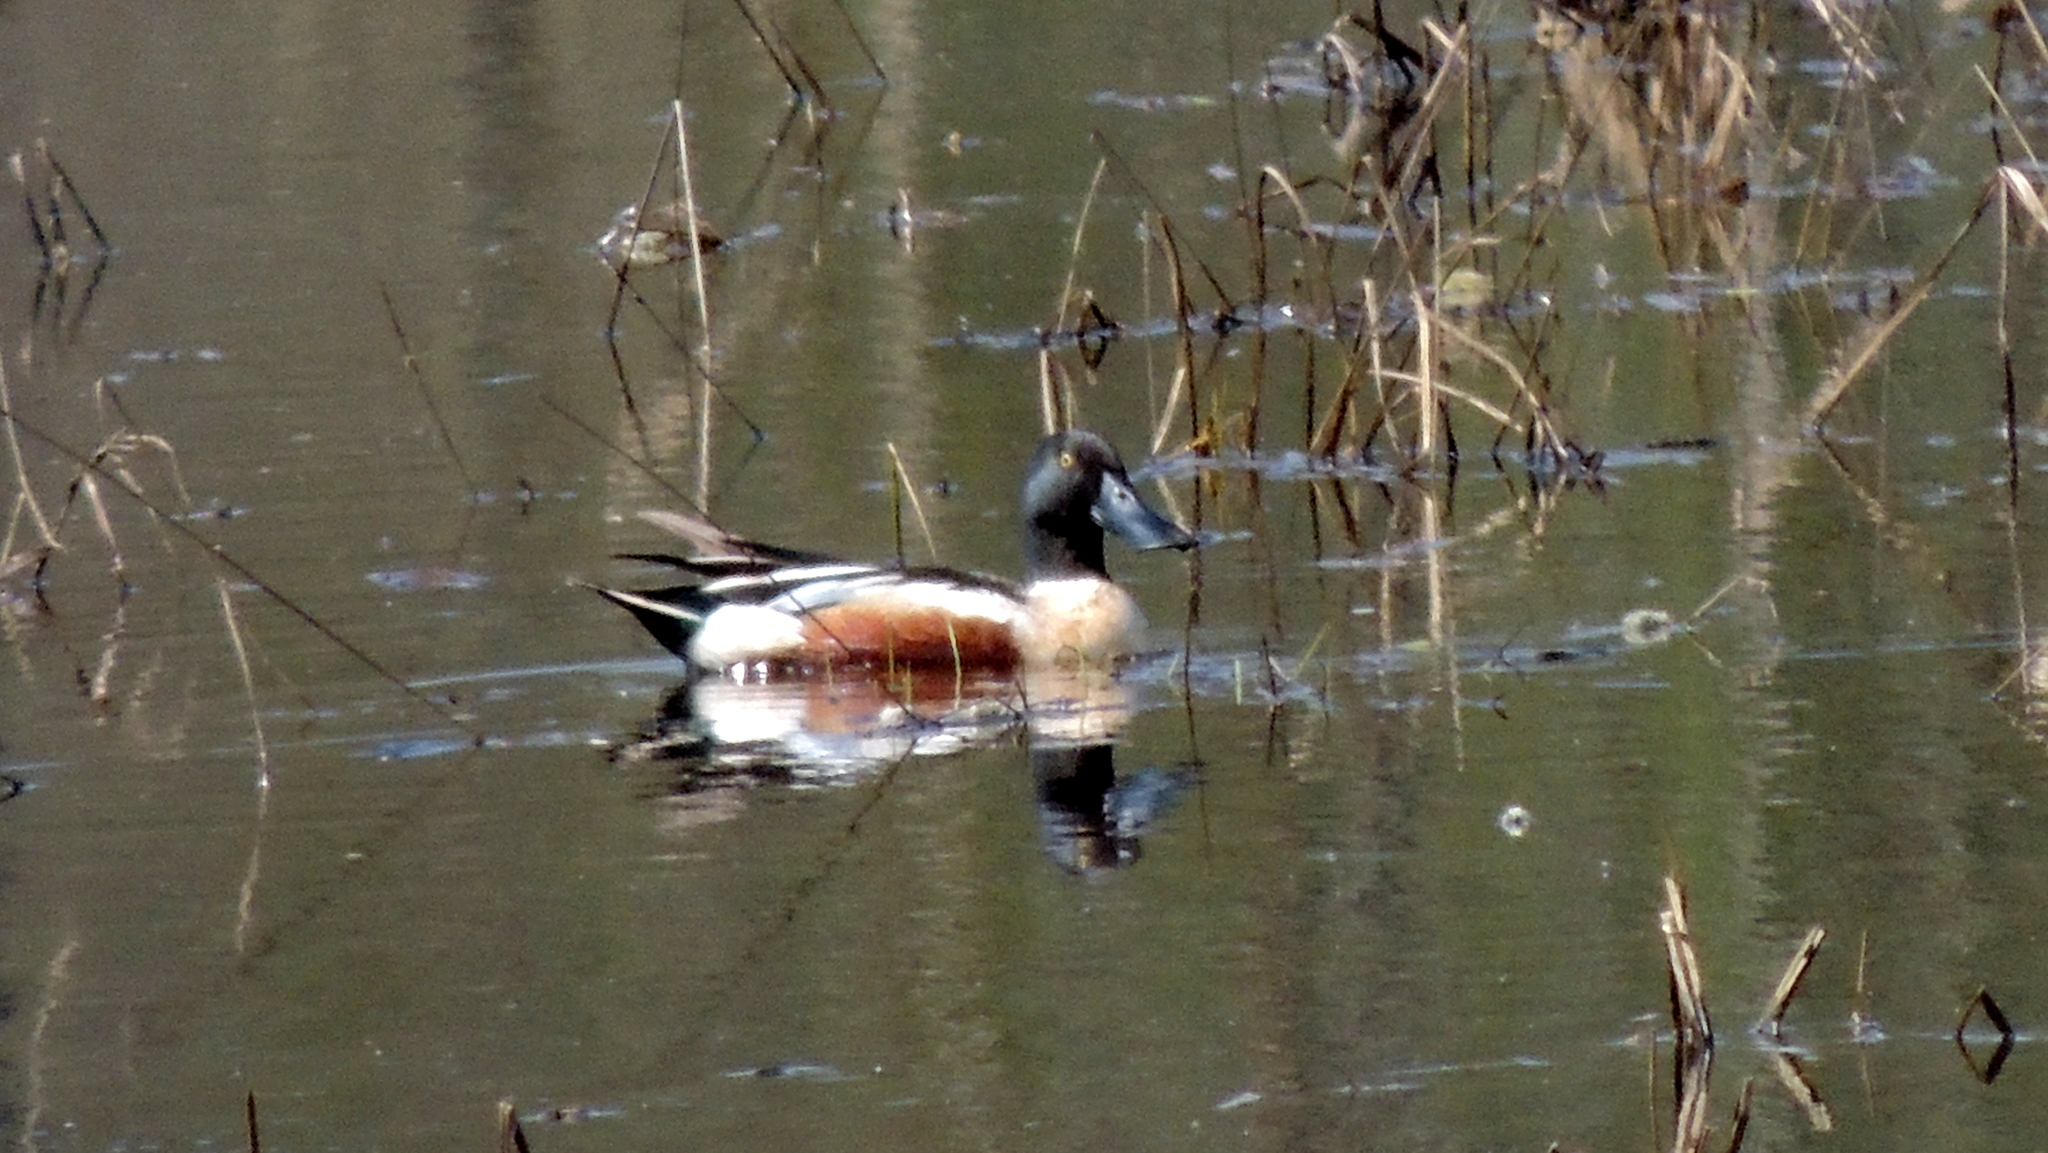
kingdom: Animalia
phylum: Chordata
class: Aves
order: Anseriformes
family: Anatidae
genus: Spatula
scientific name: Spatula clypeata
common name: Northern shoveler
